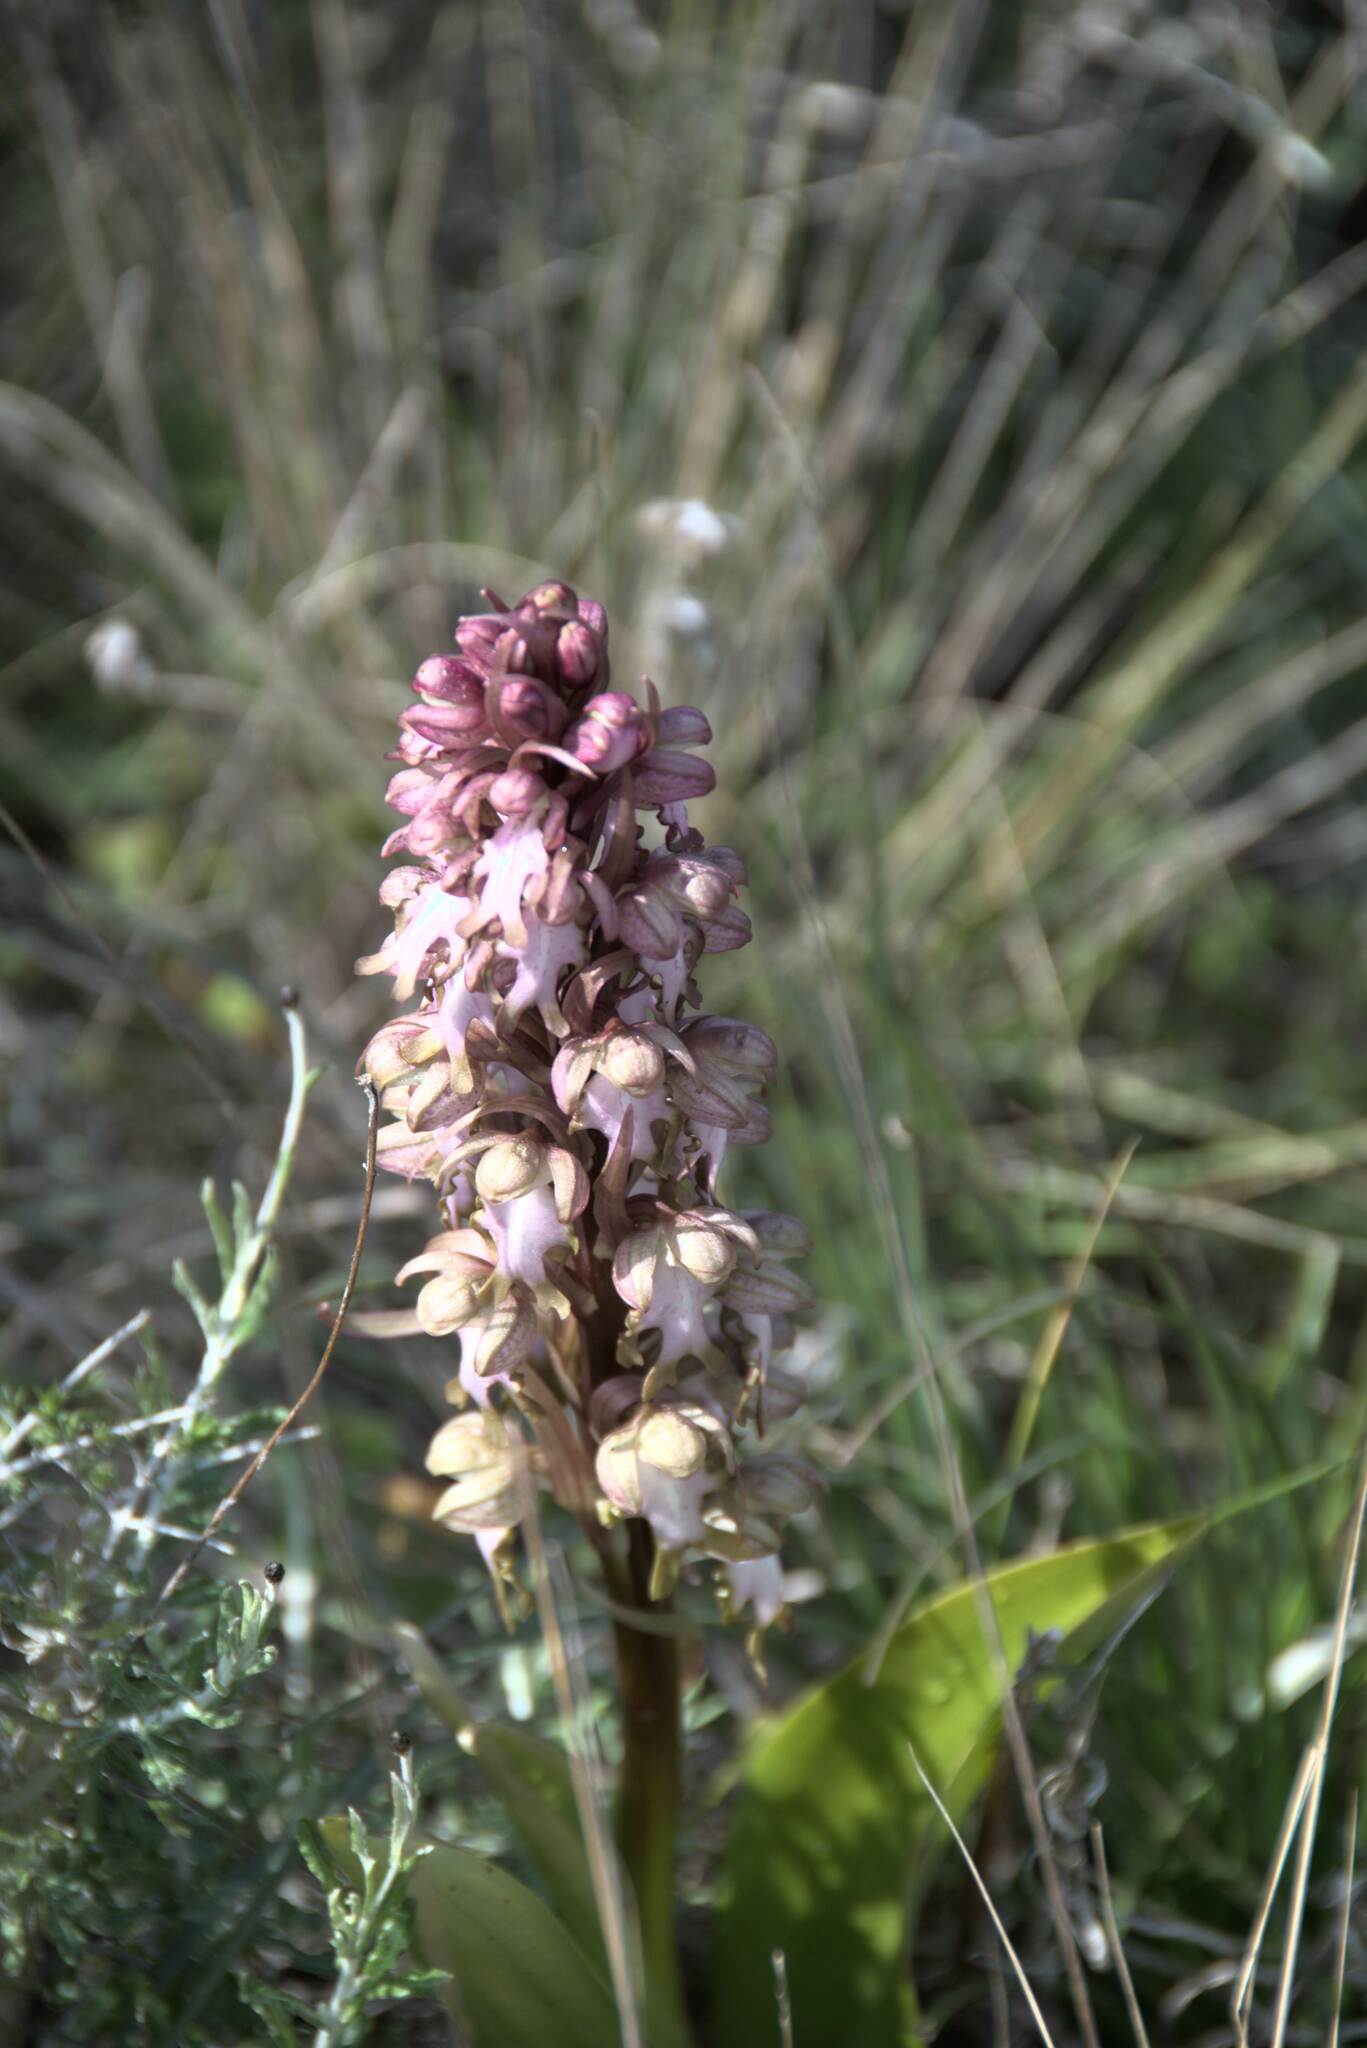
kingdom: Plantae
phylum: Tracheophyta
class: Liliopsida
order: Asparagales
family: Orchidaceae
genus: Himantoglossum
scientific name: Himantoglossum robertianum
